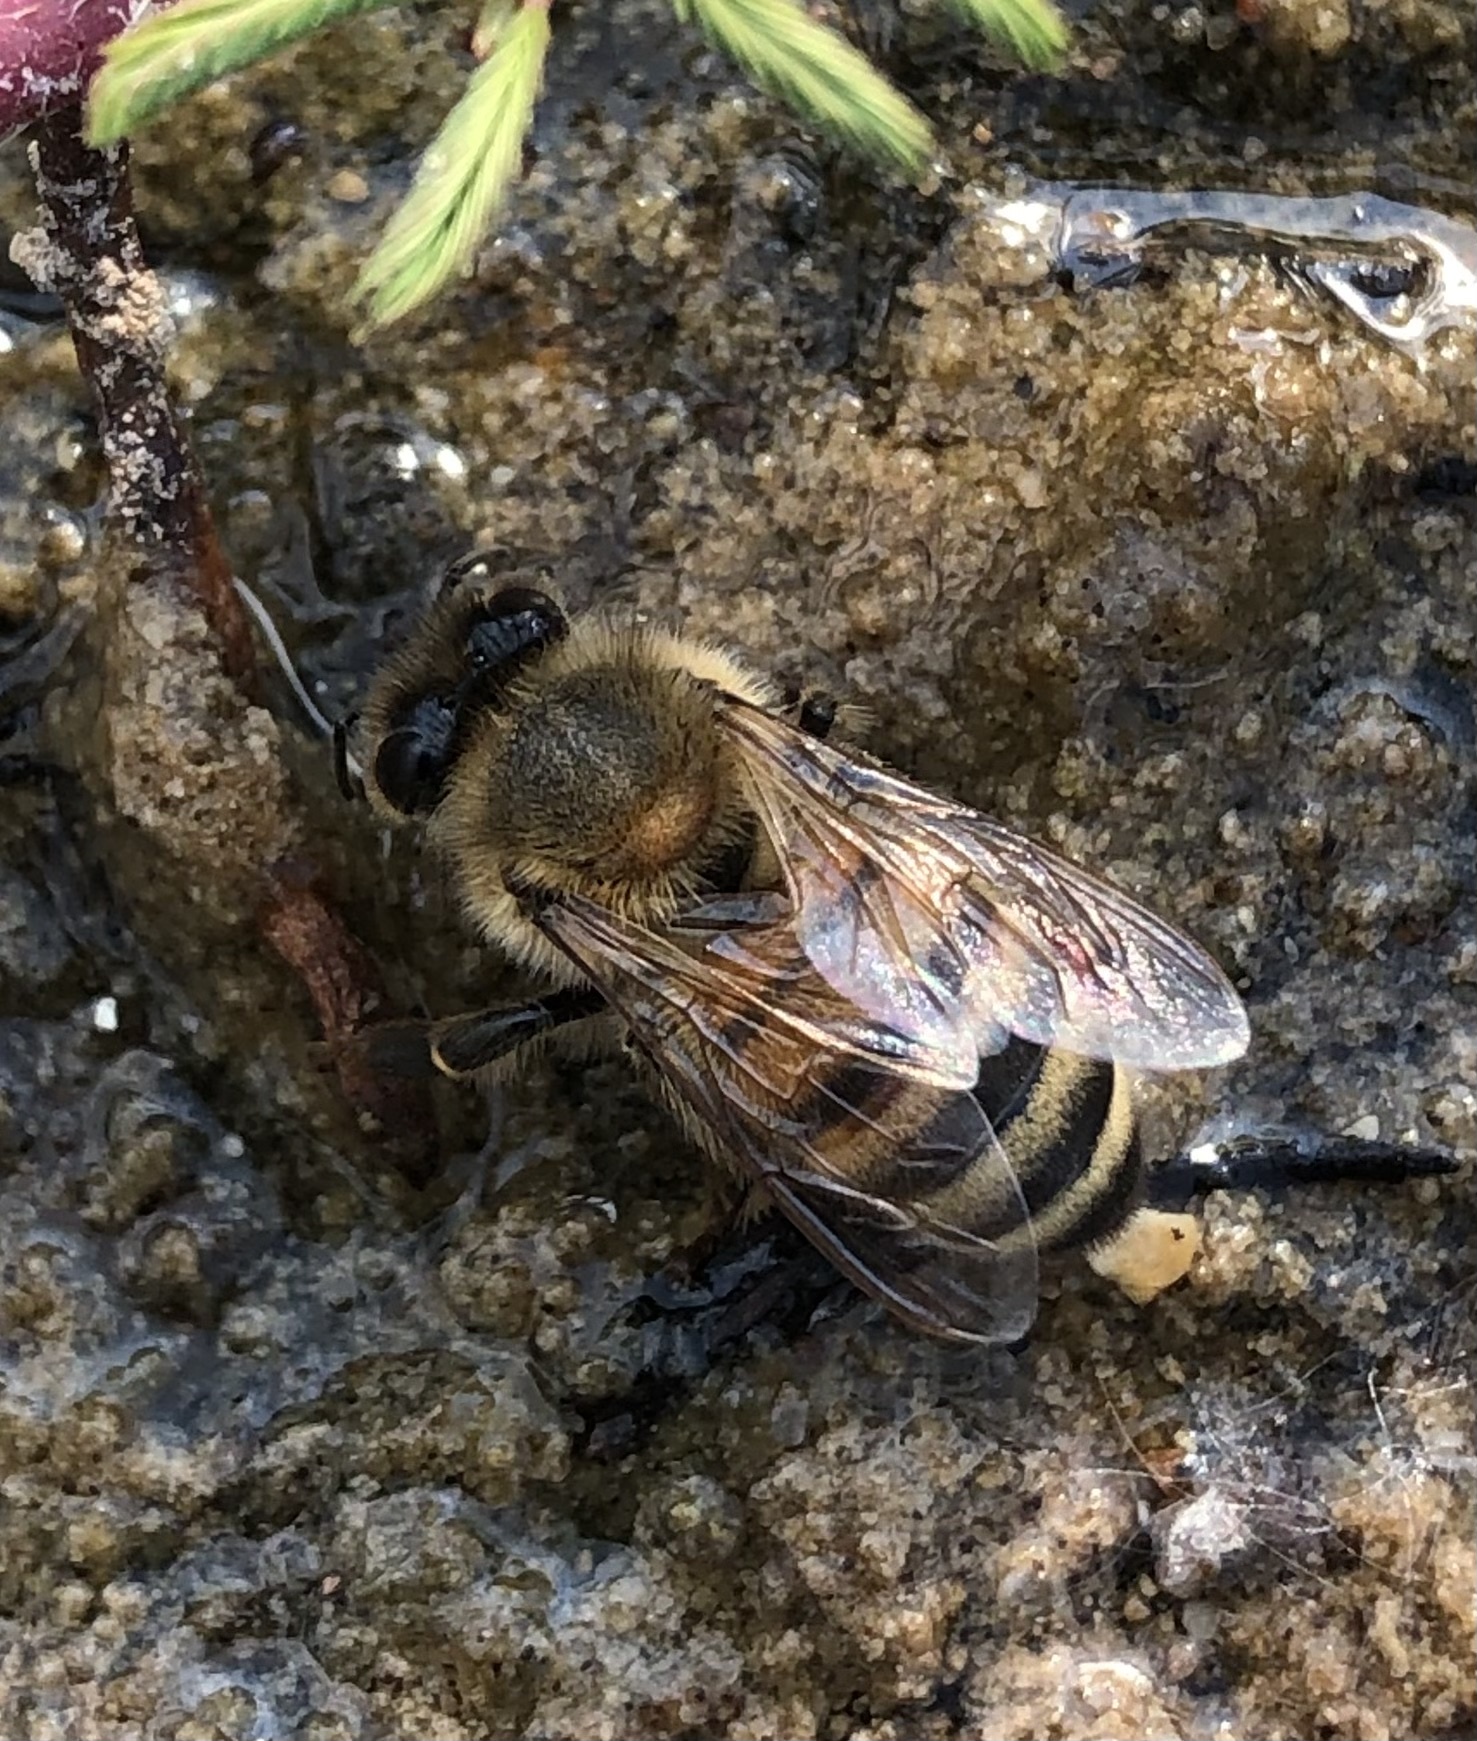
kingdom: Animalia
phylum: Arthropoda
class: Insecta
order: Hymenoptera
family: Apidae
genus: Apis
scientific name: Apis mellifera
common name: Honey bee
